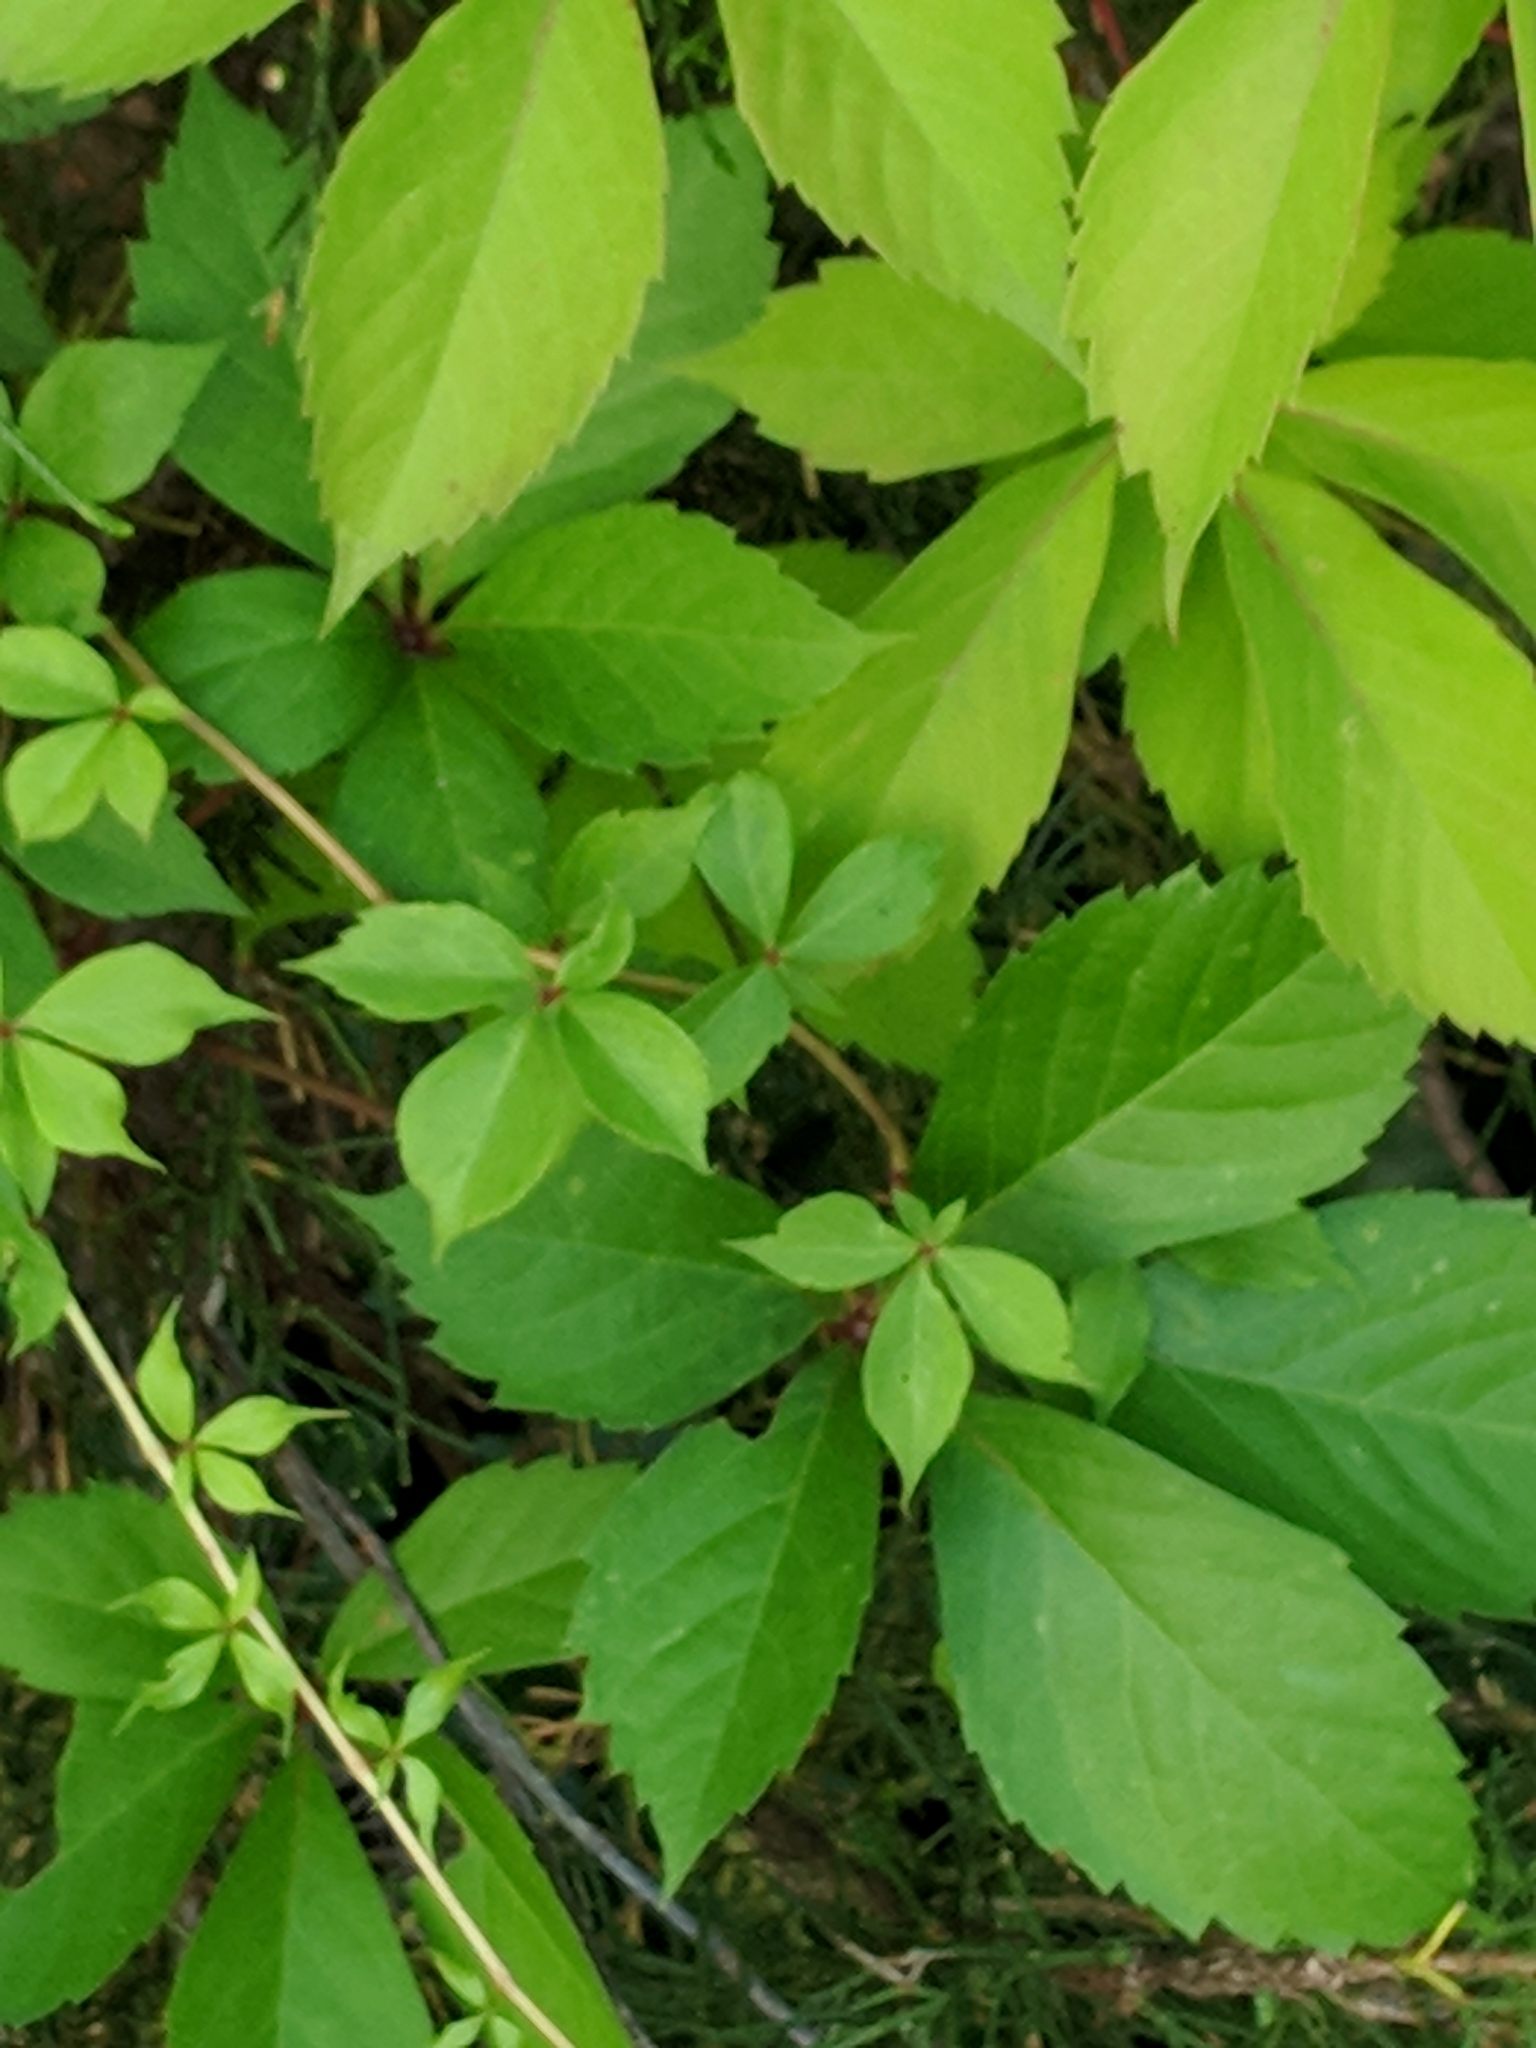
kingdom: Plantae
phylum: Tracheophyta
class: Magnoliopsida
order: Vitales
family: Vitaceae
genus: Parthenocissus
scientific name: Parthenocissus quinquefolia
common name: Virginia-creeper
